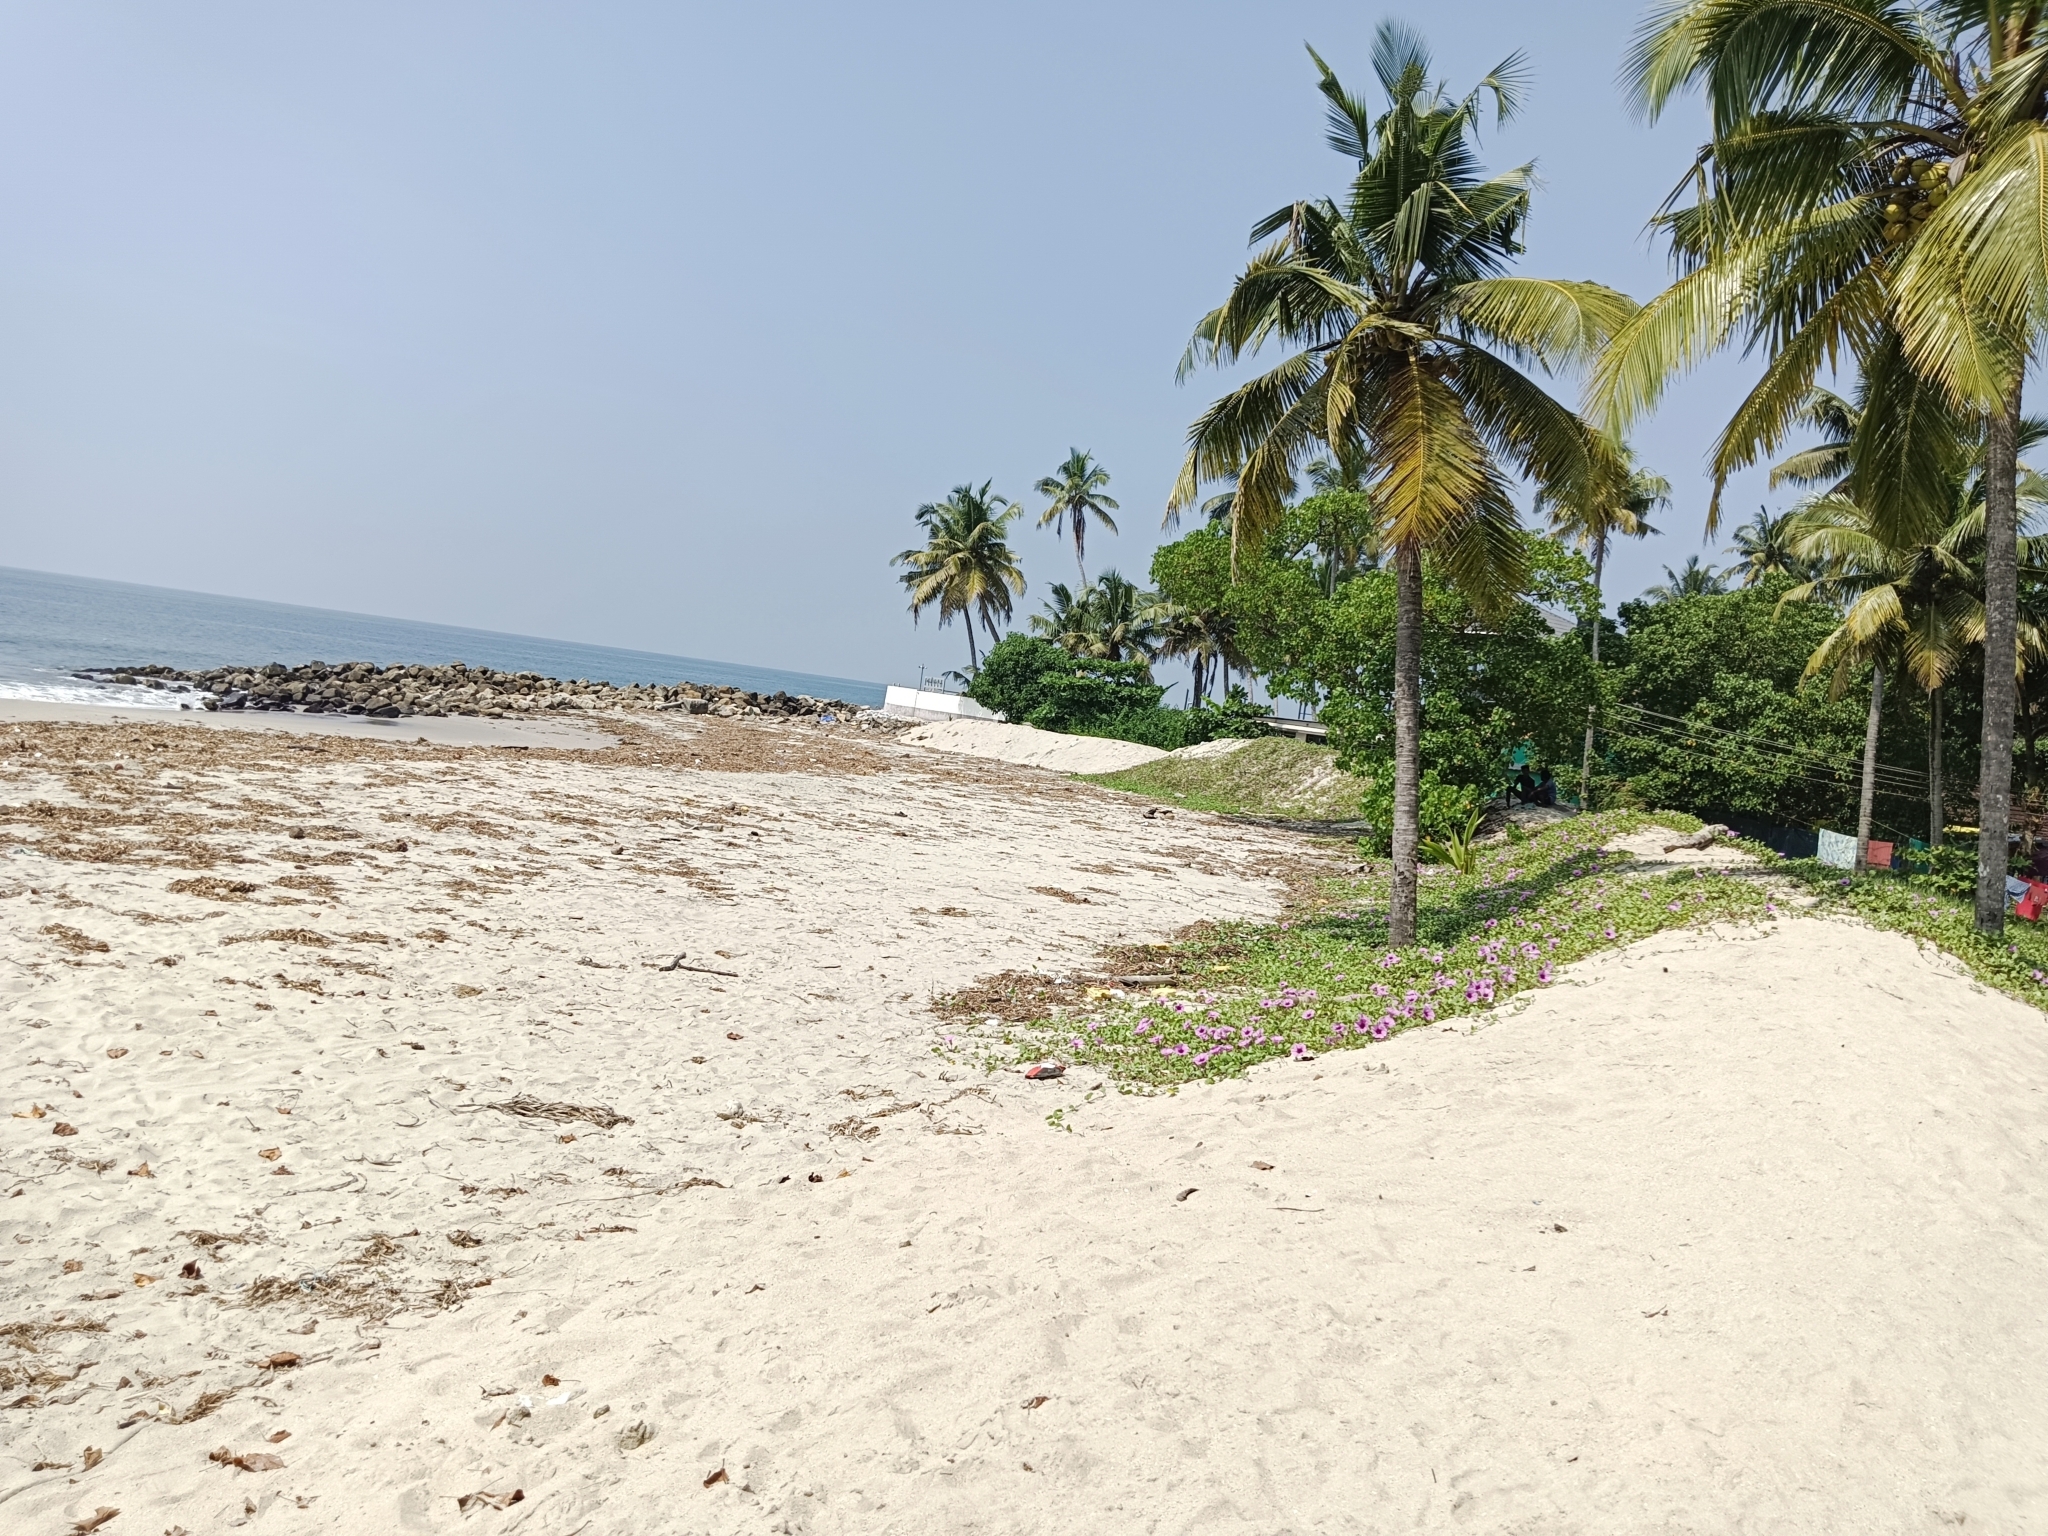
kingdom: Plantae
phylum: Tracheophyta
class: Magnoliopsida
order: Solanales
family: Convolvulaceae
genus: Ipomoea
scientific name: Ipomoea pes-caprae
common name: Beach morning glory
